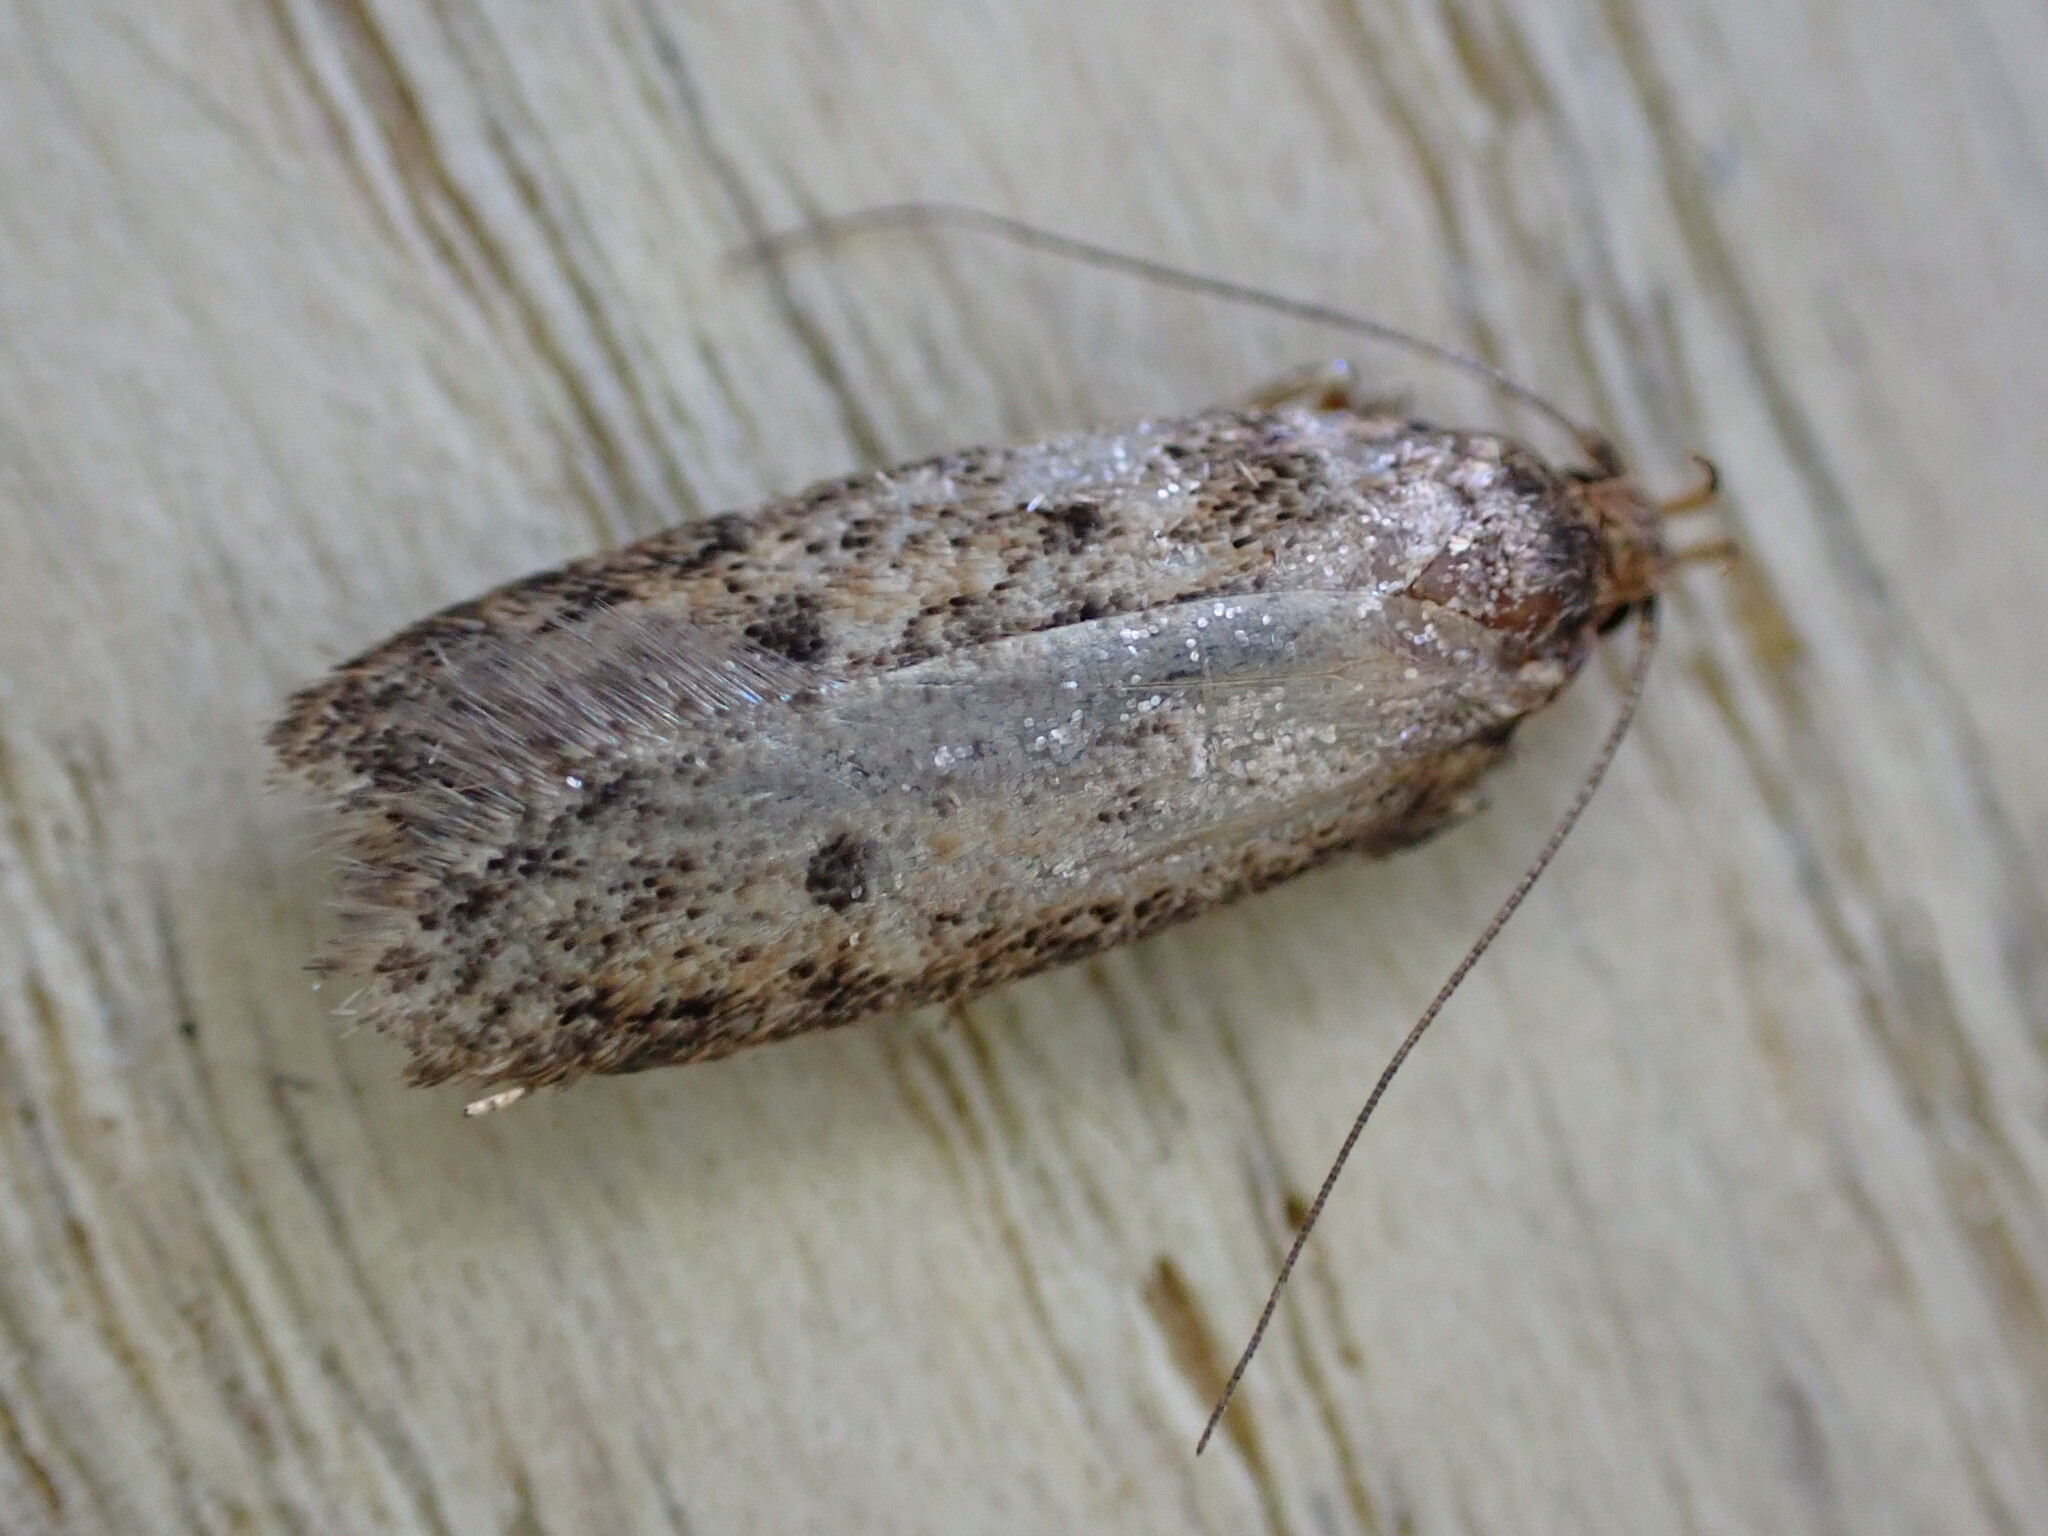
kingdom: Animalia
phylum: Arthropoda
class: Insecta
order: Lepidoptera
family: Oecophoridae
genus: Hofmannophila
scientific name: Hofmannophila pseudospretella
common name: Brown house moth
